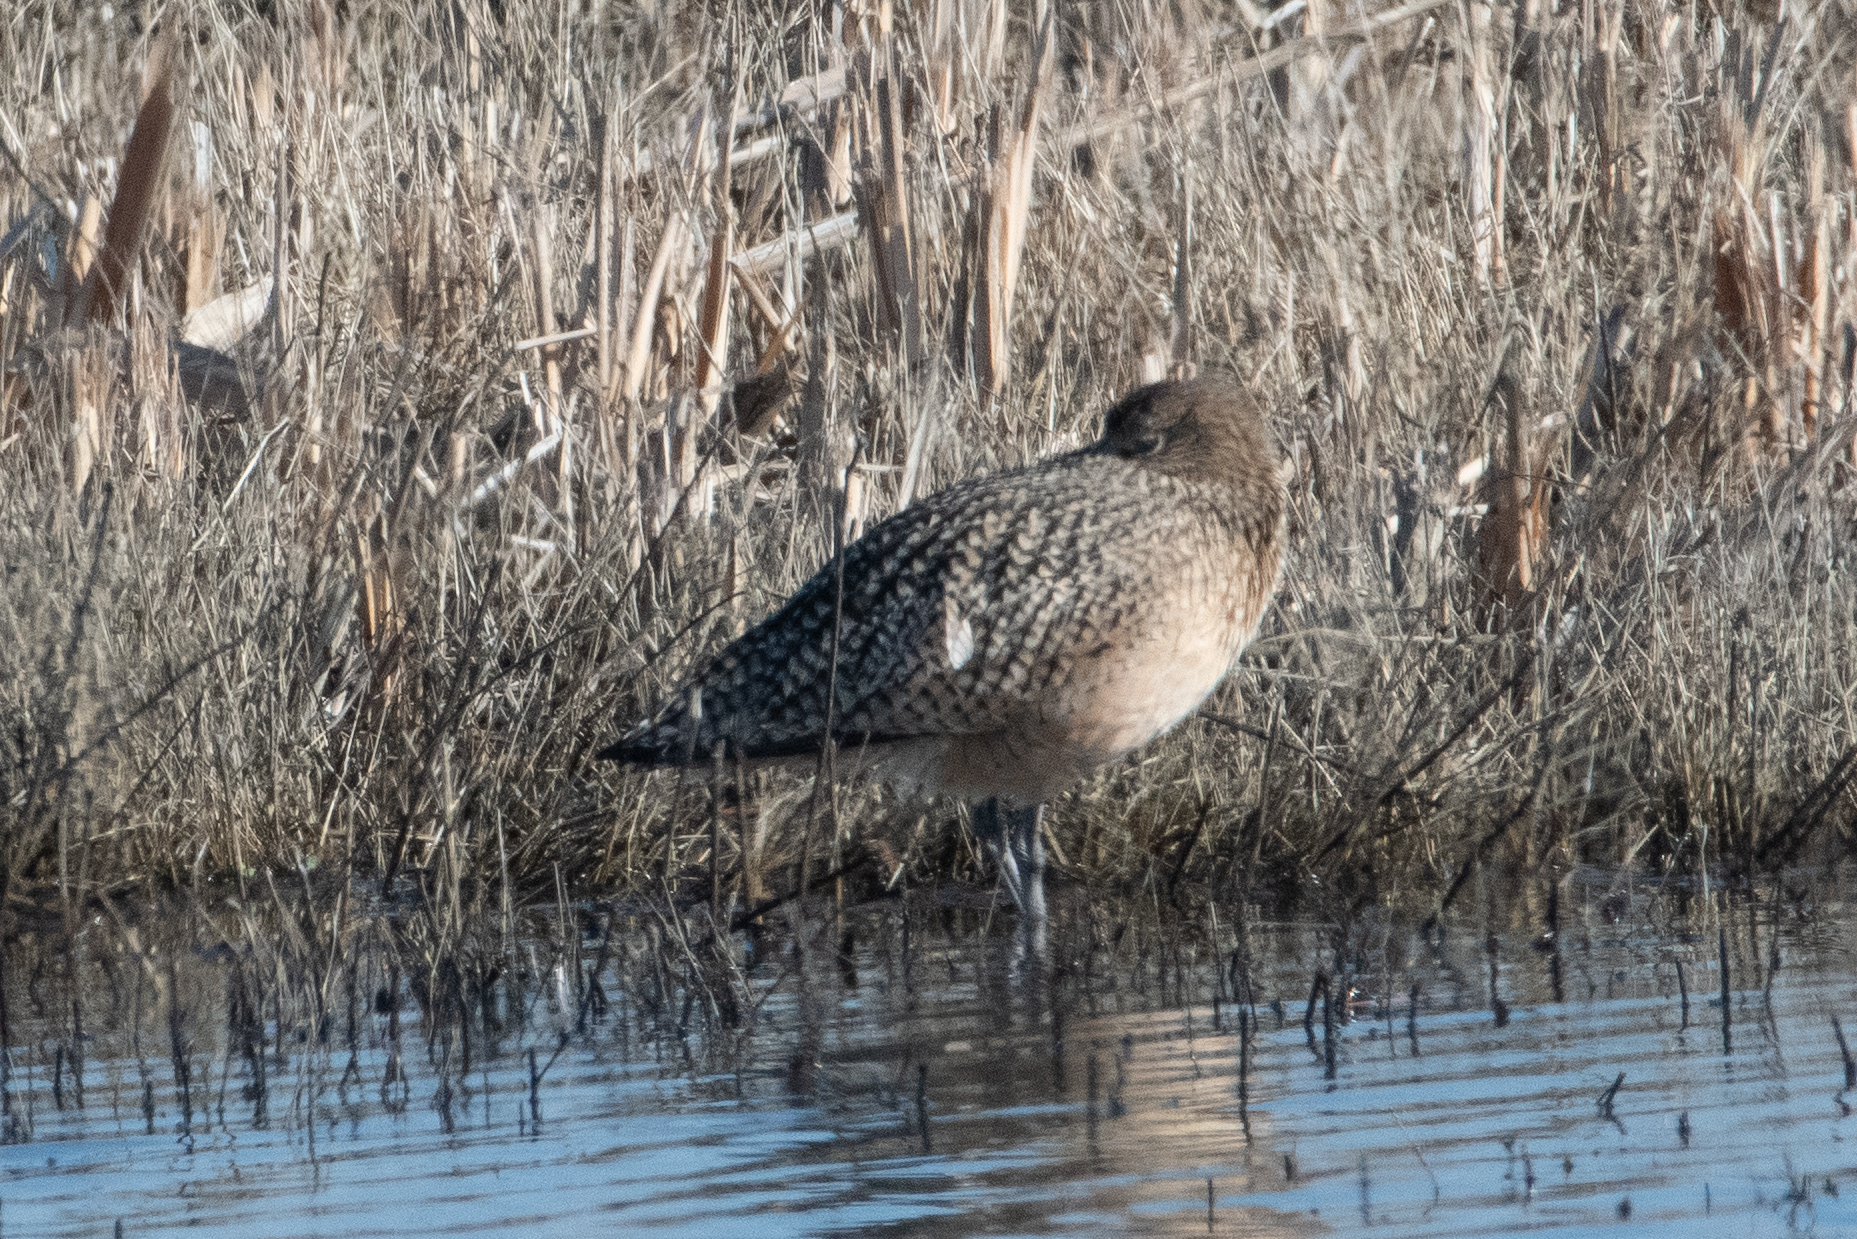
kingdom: Animalia
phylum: Chordata
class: Aves
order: Charadriiformes
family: Scolopacidae
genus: Numenius
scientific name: Numenius americanus
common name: Long-billed curlew
